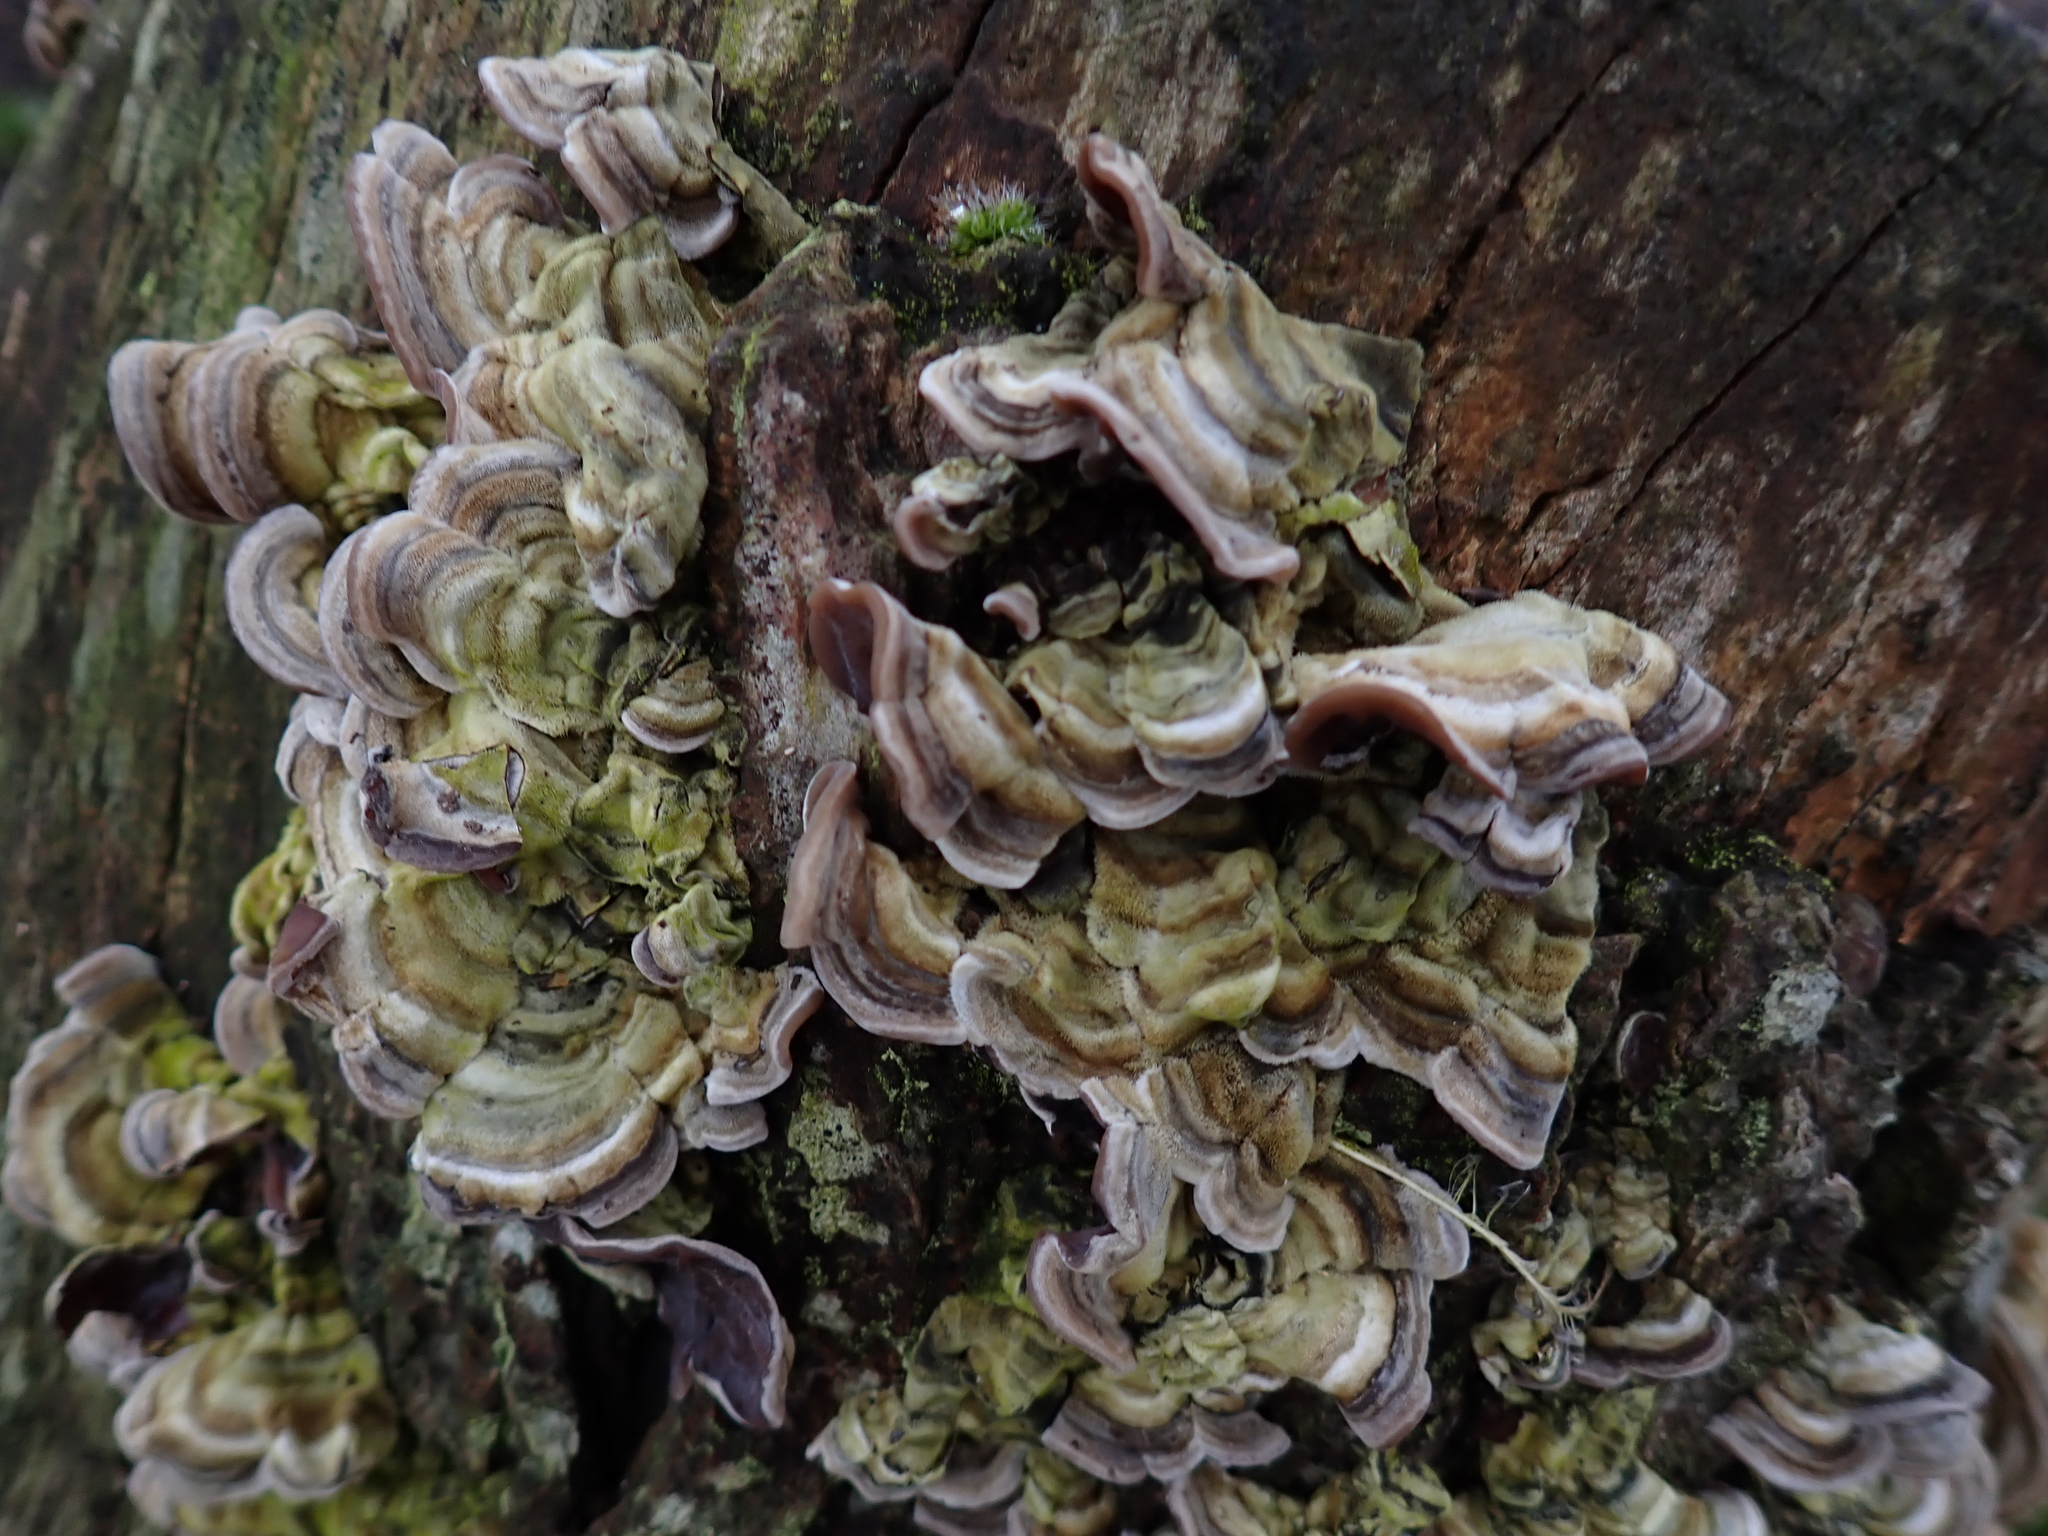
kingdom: Fungi
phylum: Basidiomycota
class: Agaricomycetes
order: Auriculariales
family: Auriculariaceae
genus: Auricularia
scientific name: Auricularia mesenterica
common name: Tripe fungus
